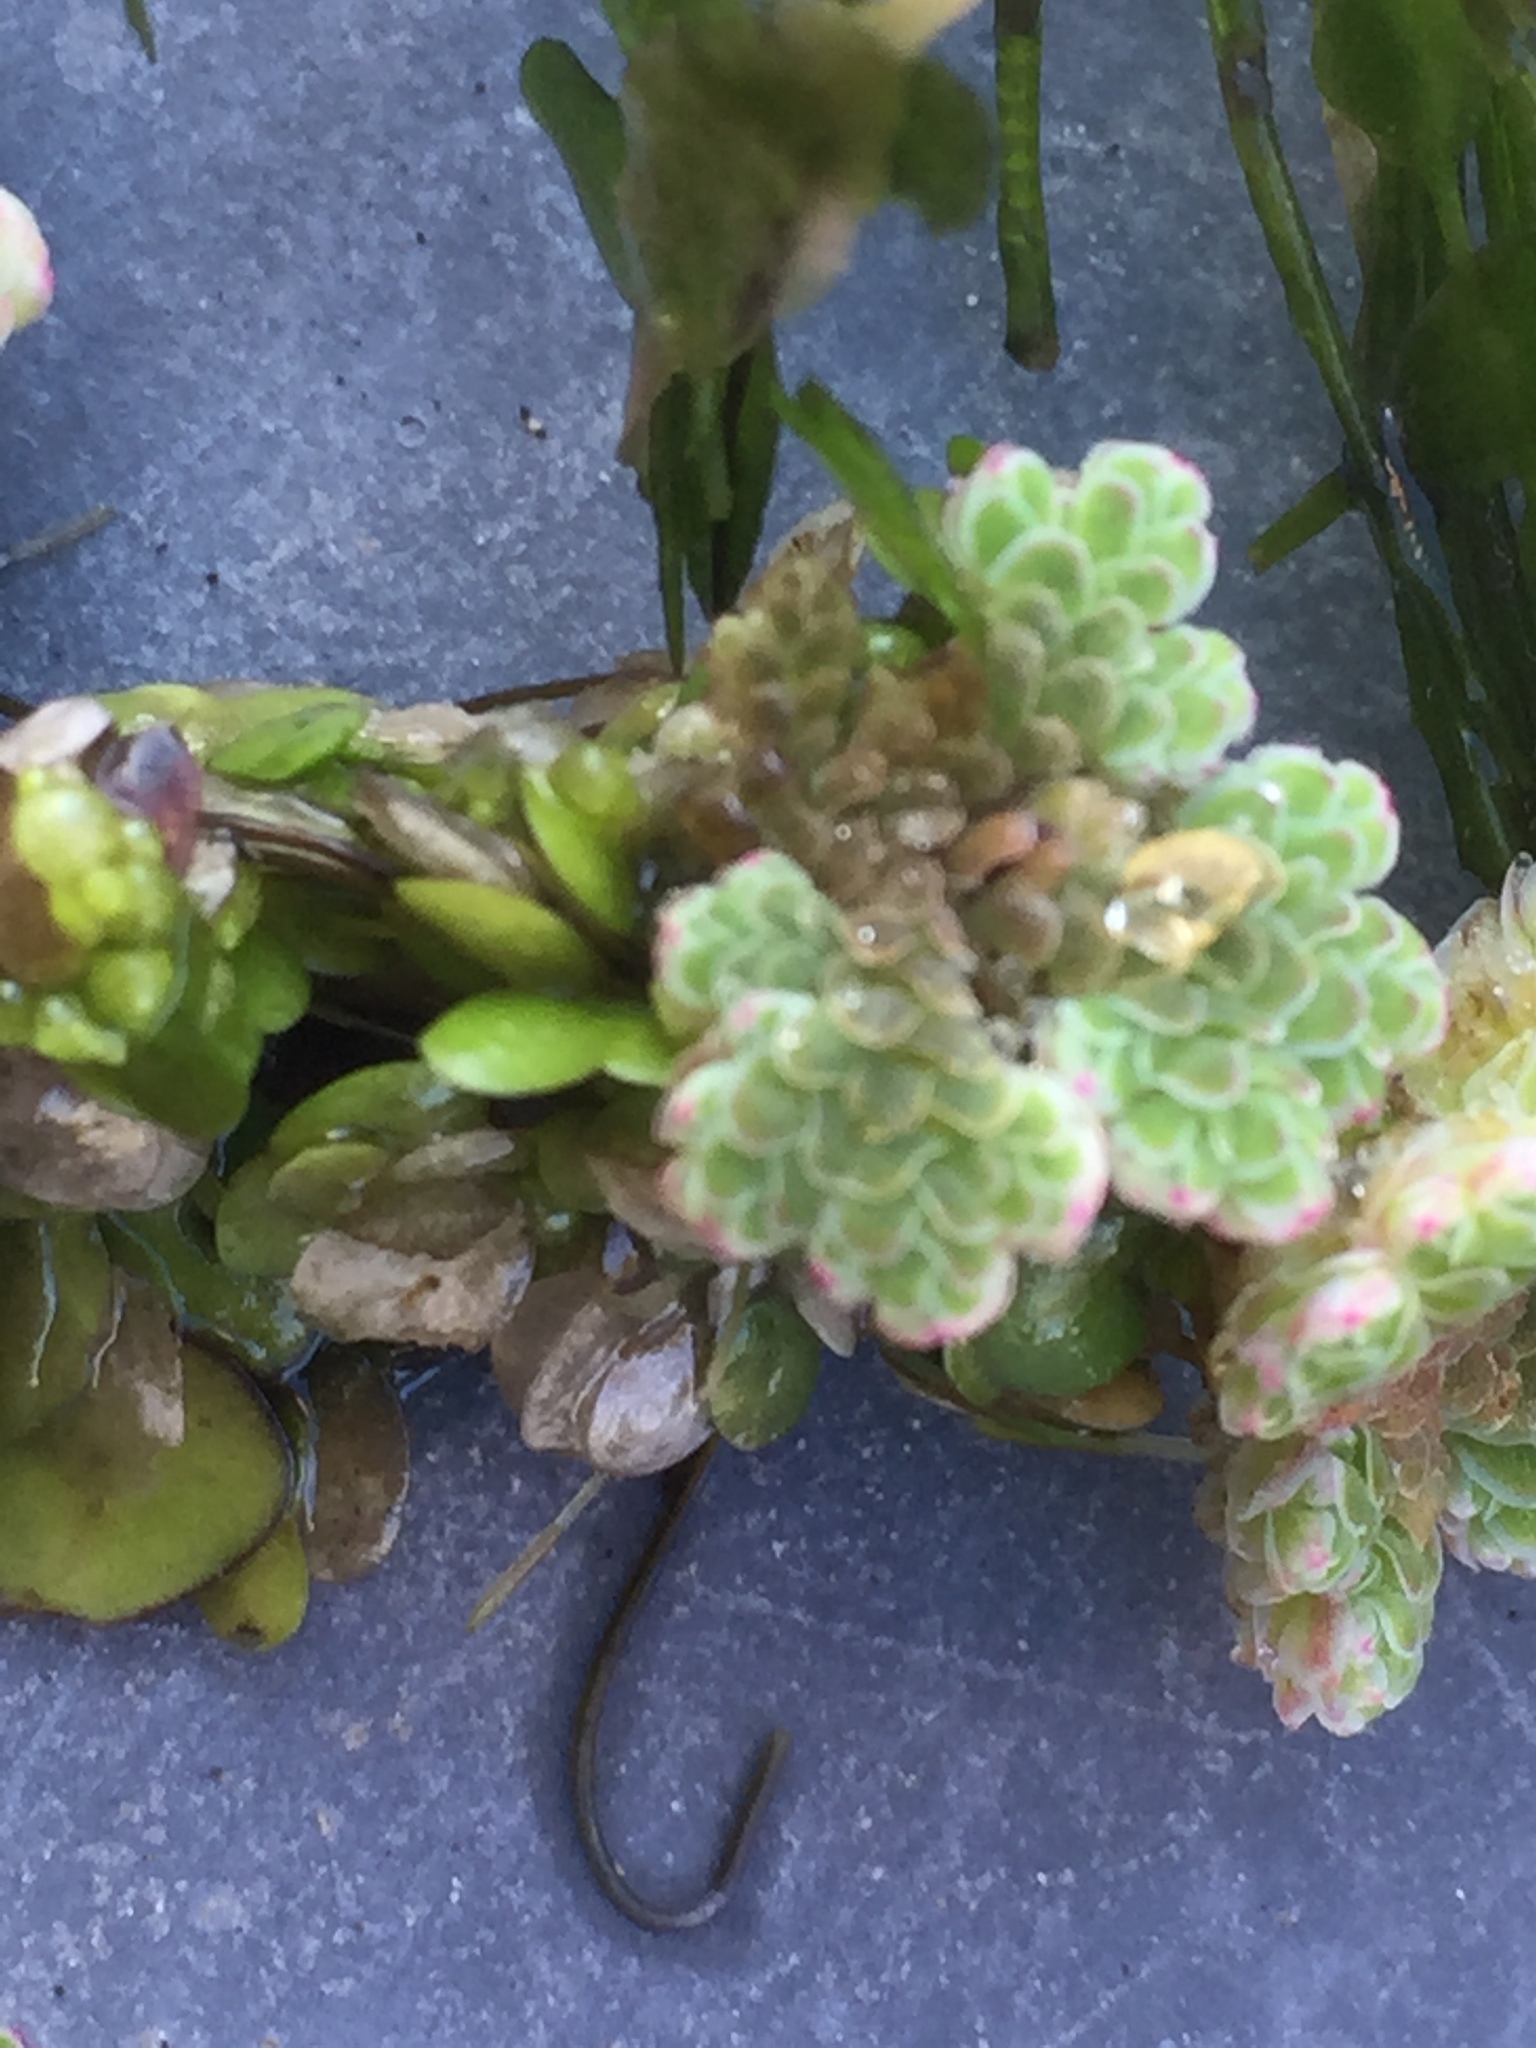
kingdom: Plantae
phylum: Tracheophyta
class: Polypodiopsida
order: Salviniales
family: Salviniaceae
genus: Azolla
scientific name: Azolla filiculoides
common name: Water fern
